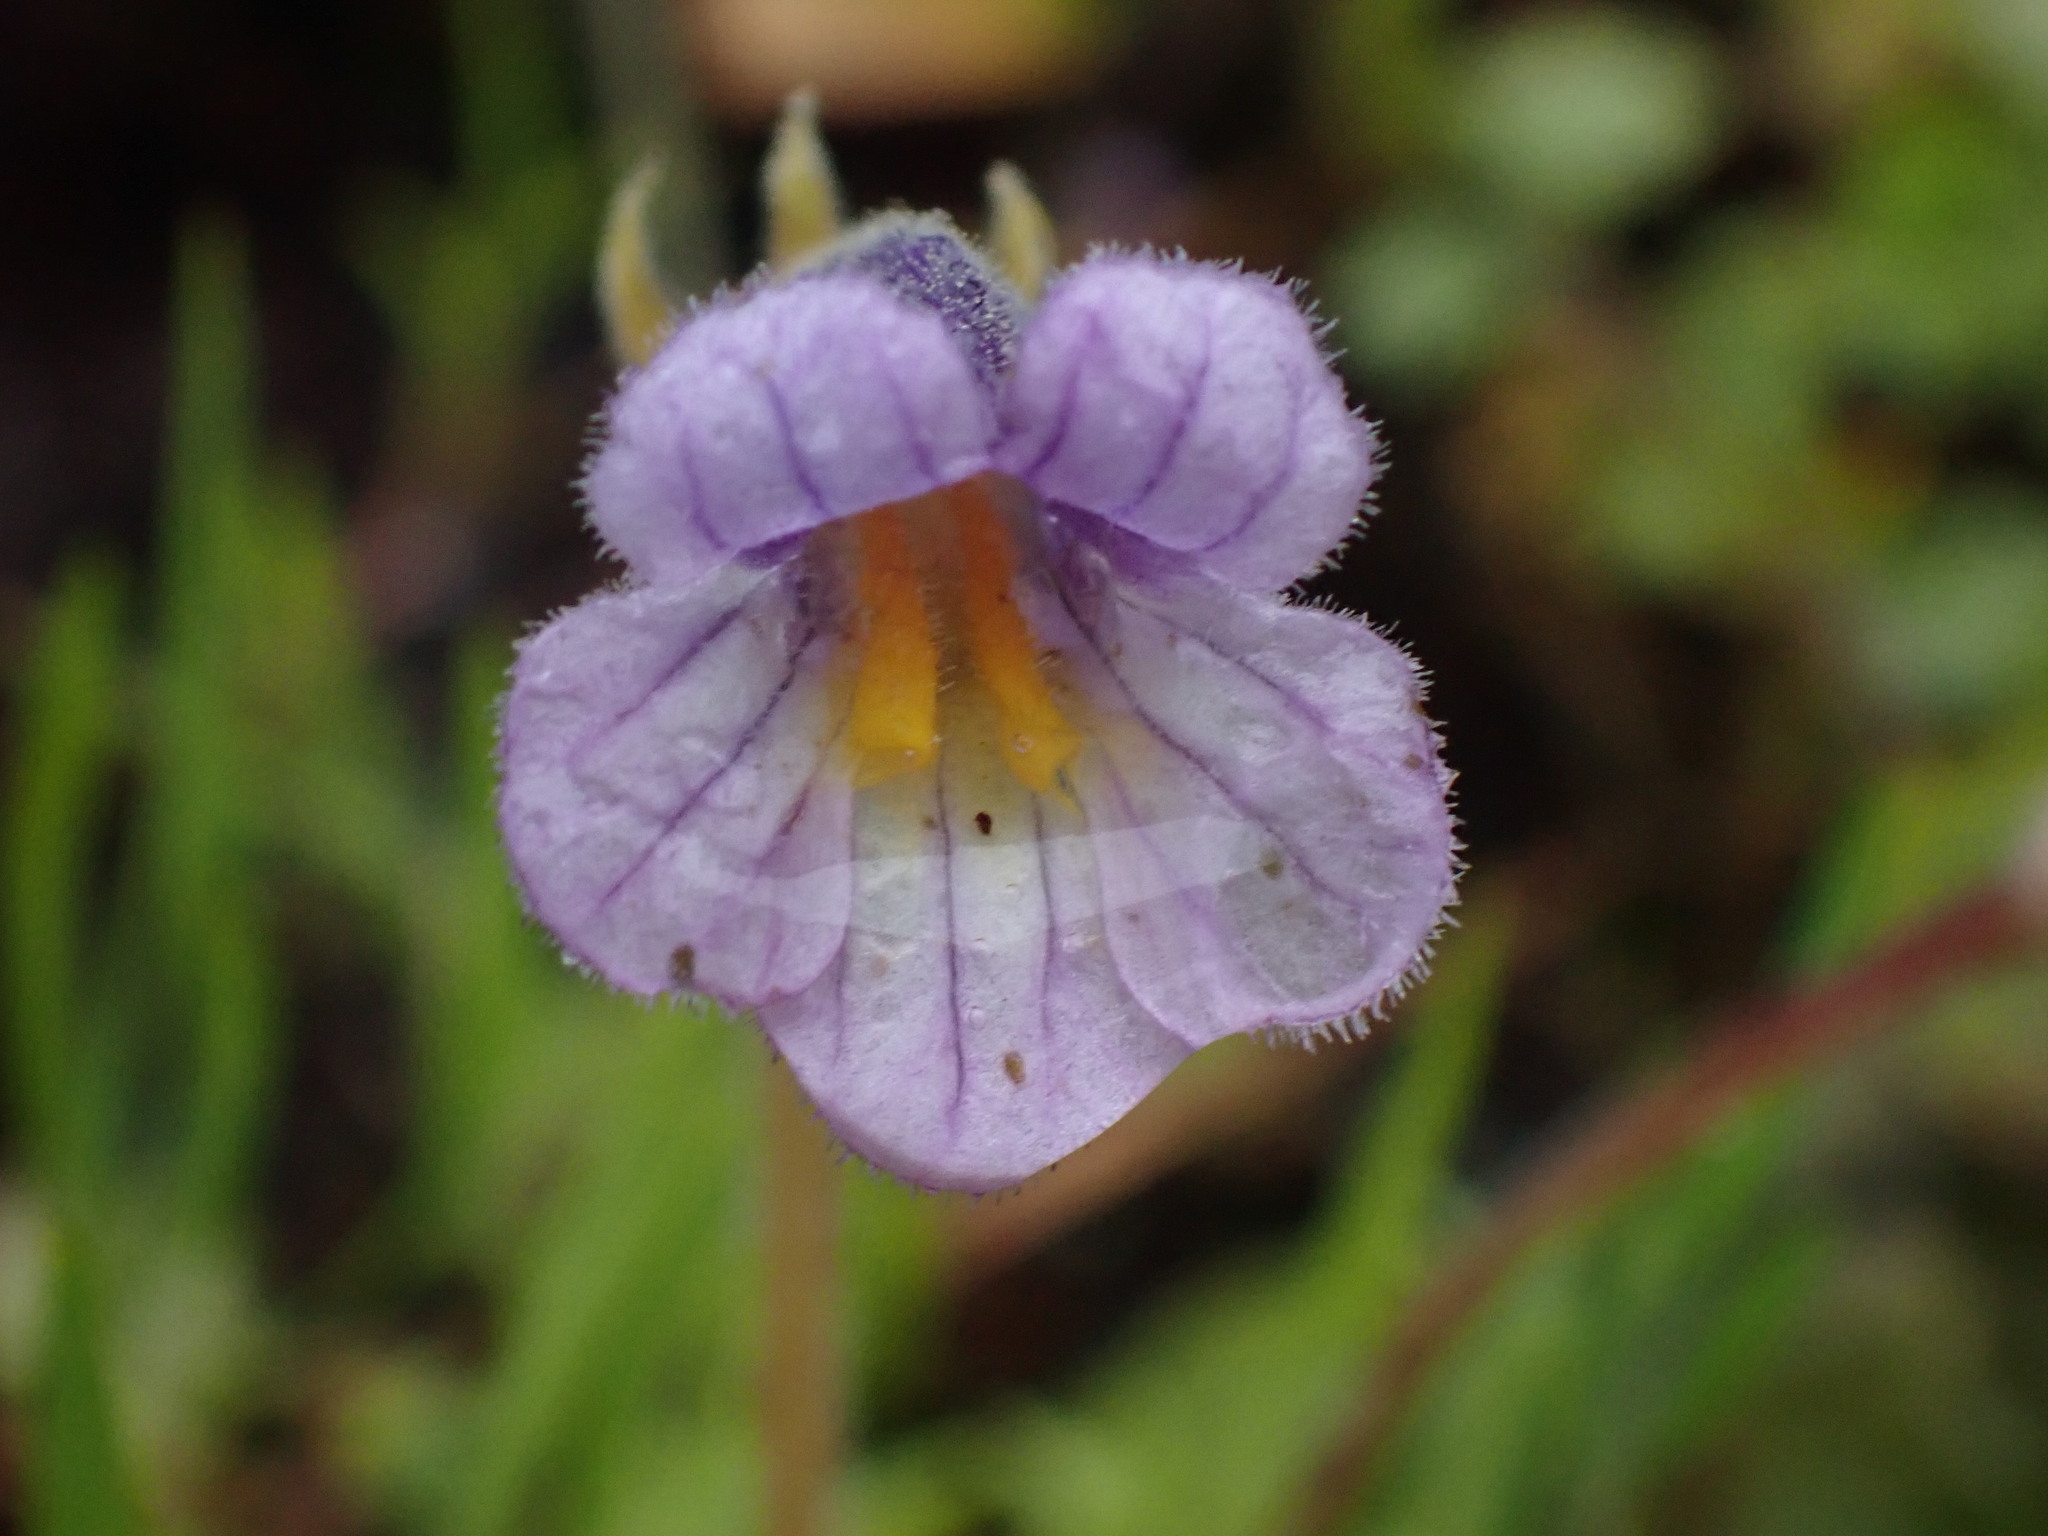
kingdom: Plantae
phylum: Tracheophyta
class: Magnoliopsida
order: Lamiales
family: Orobanchaceae
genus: Aphyllon
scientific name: Aphyllon uniflorum
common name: One-flowered broomrape
